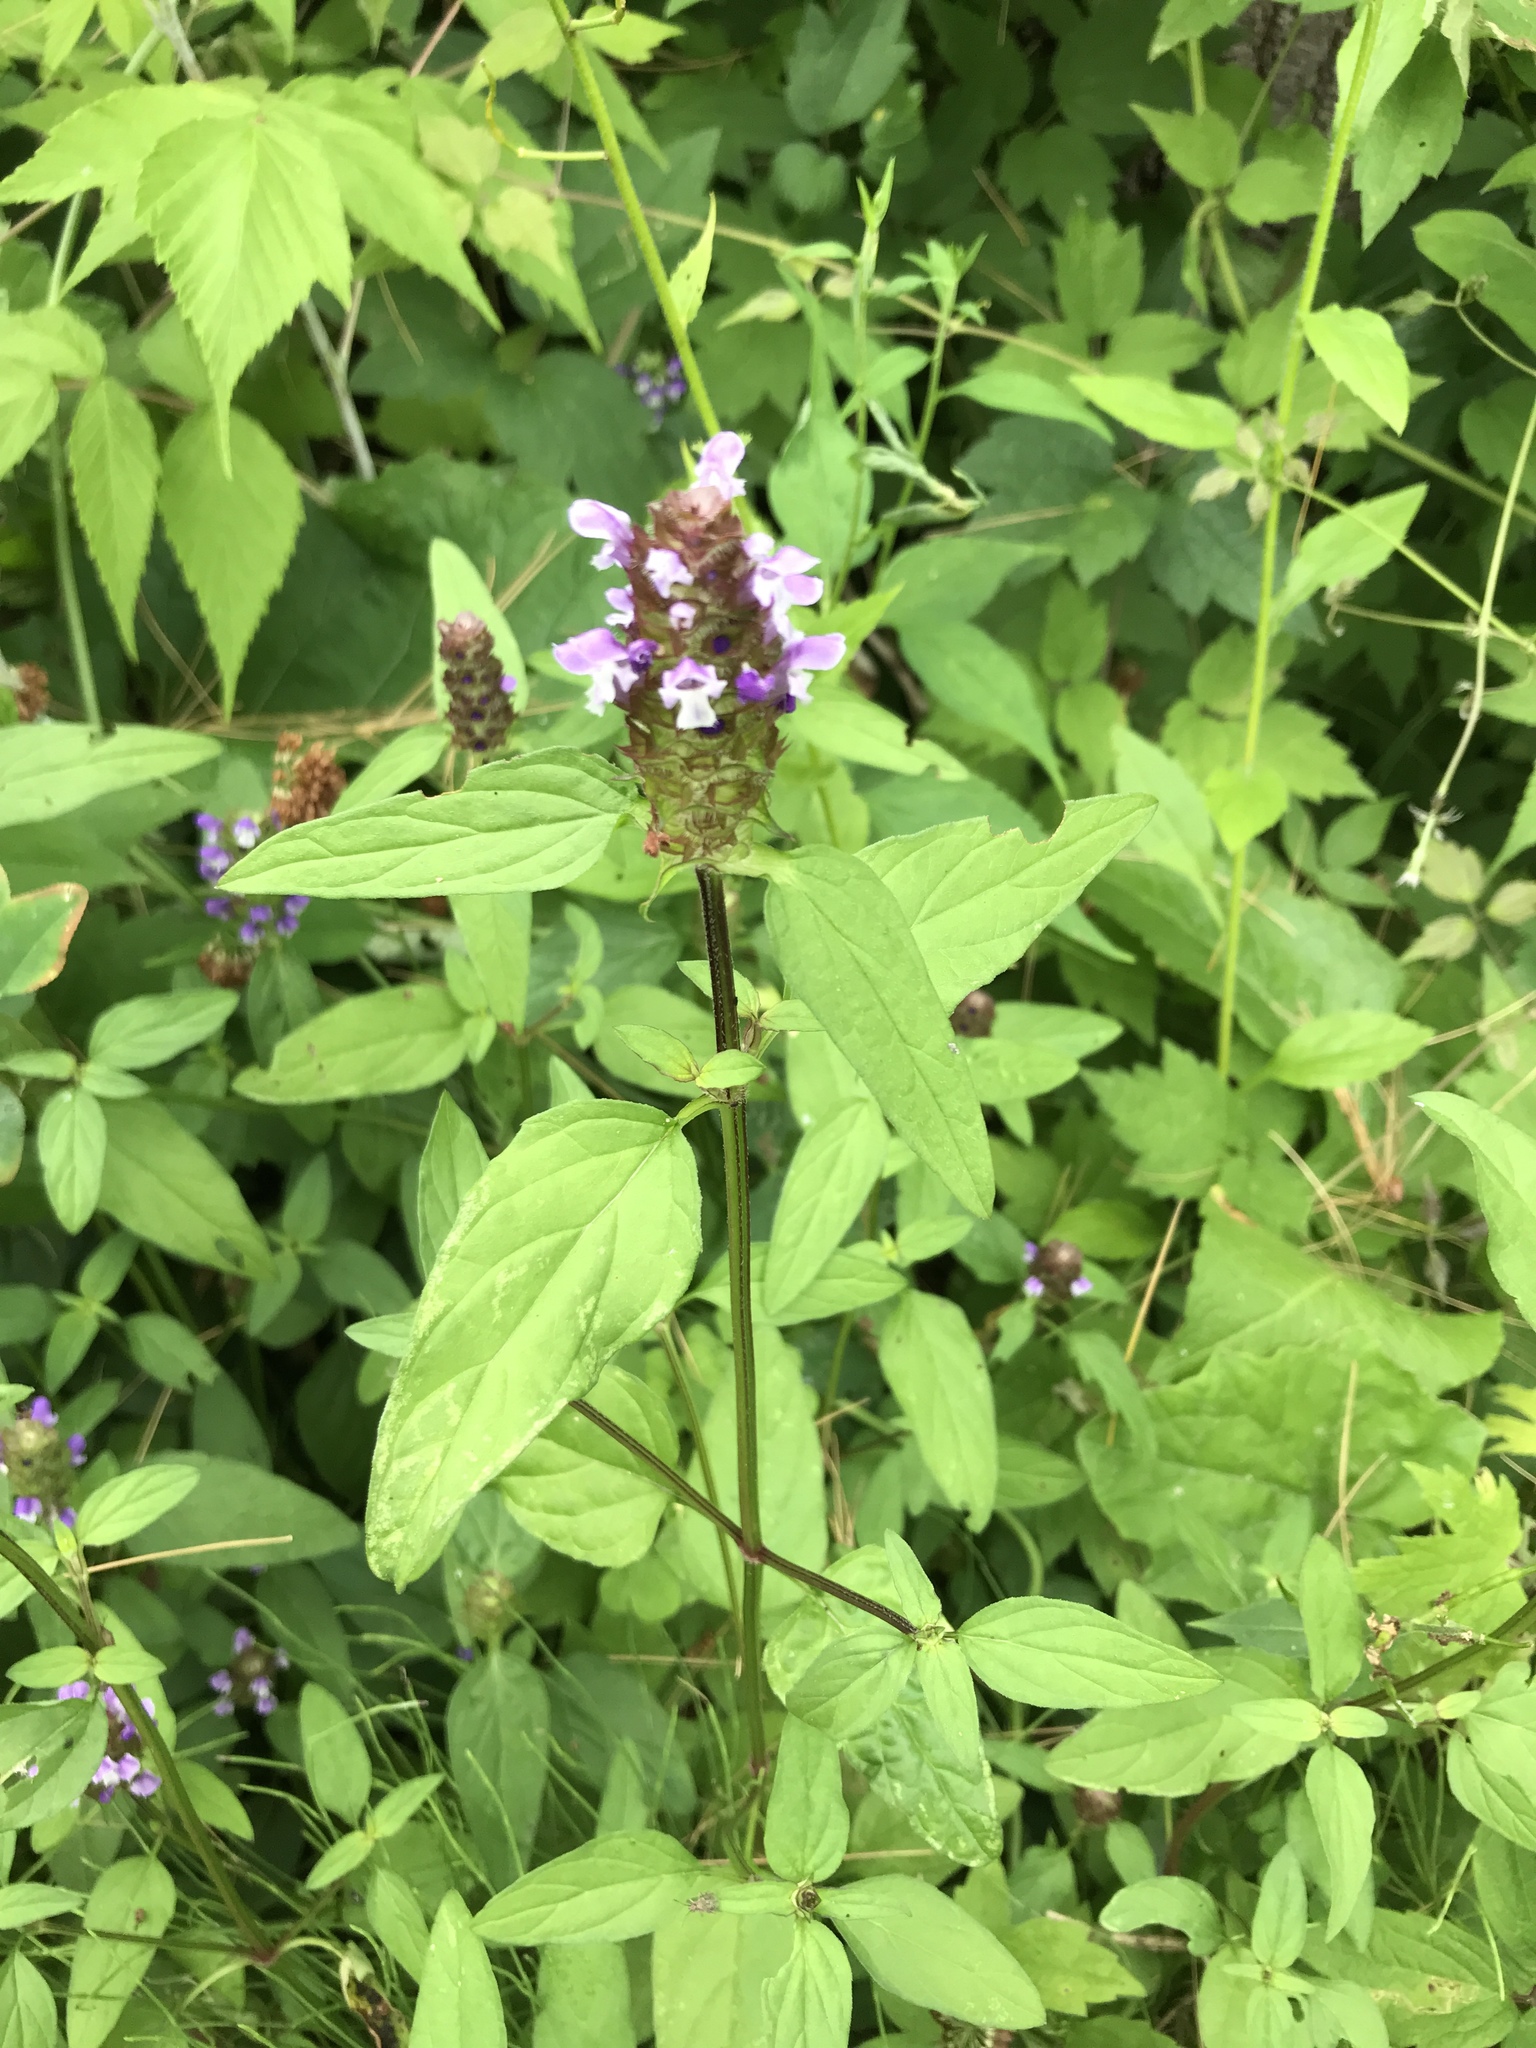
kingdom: Plantae
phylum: Tracheophyta
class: Magnoliopsida
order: Lamiales
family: Lamiaceae
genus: Prunella
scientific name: Prunella vulgaris
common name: Heal-all
